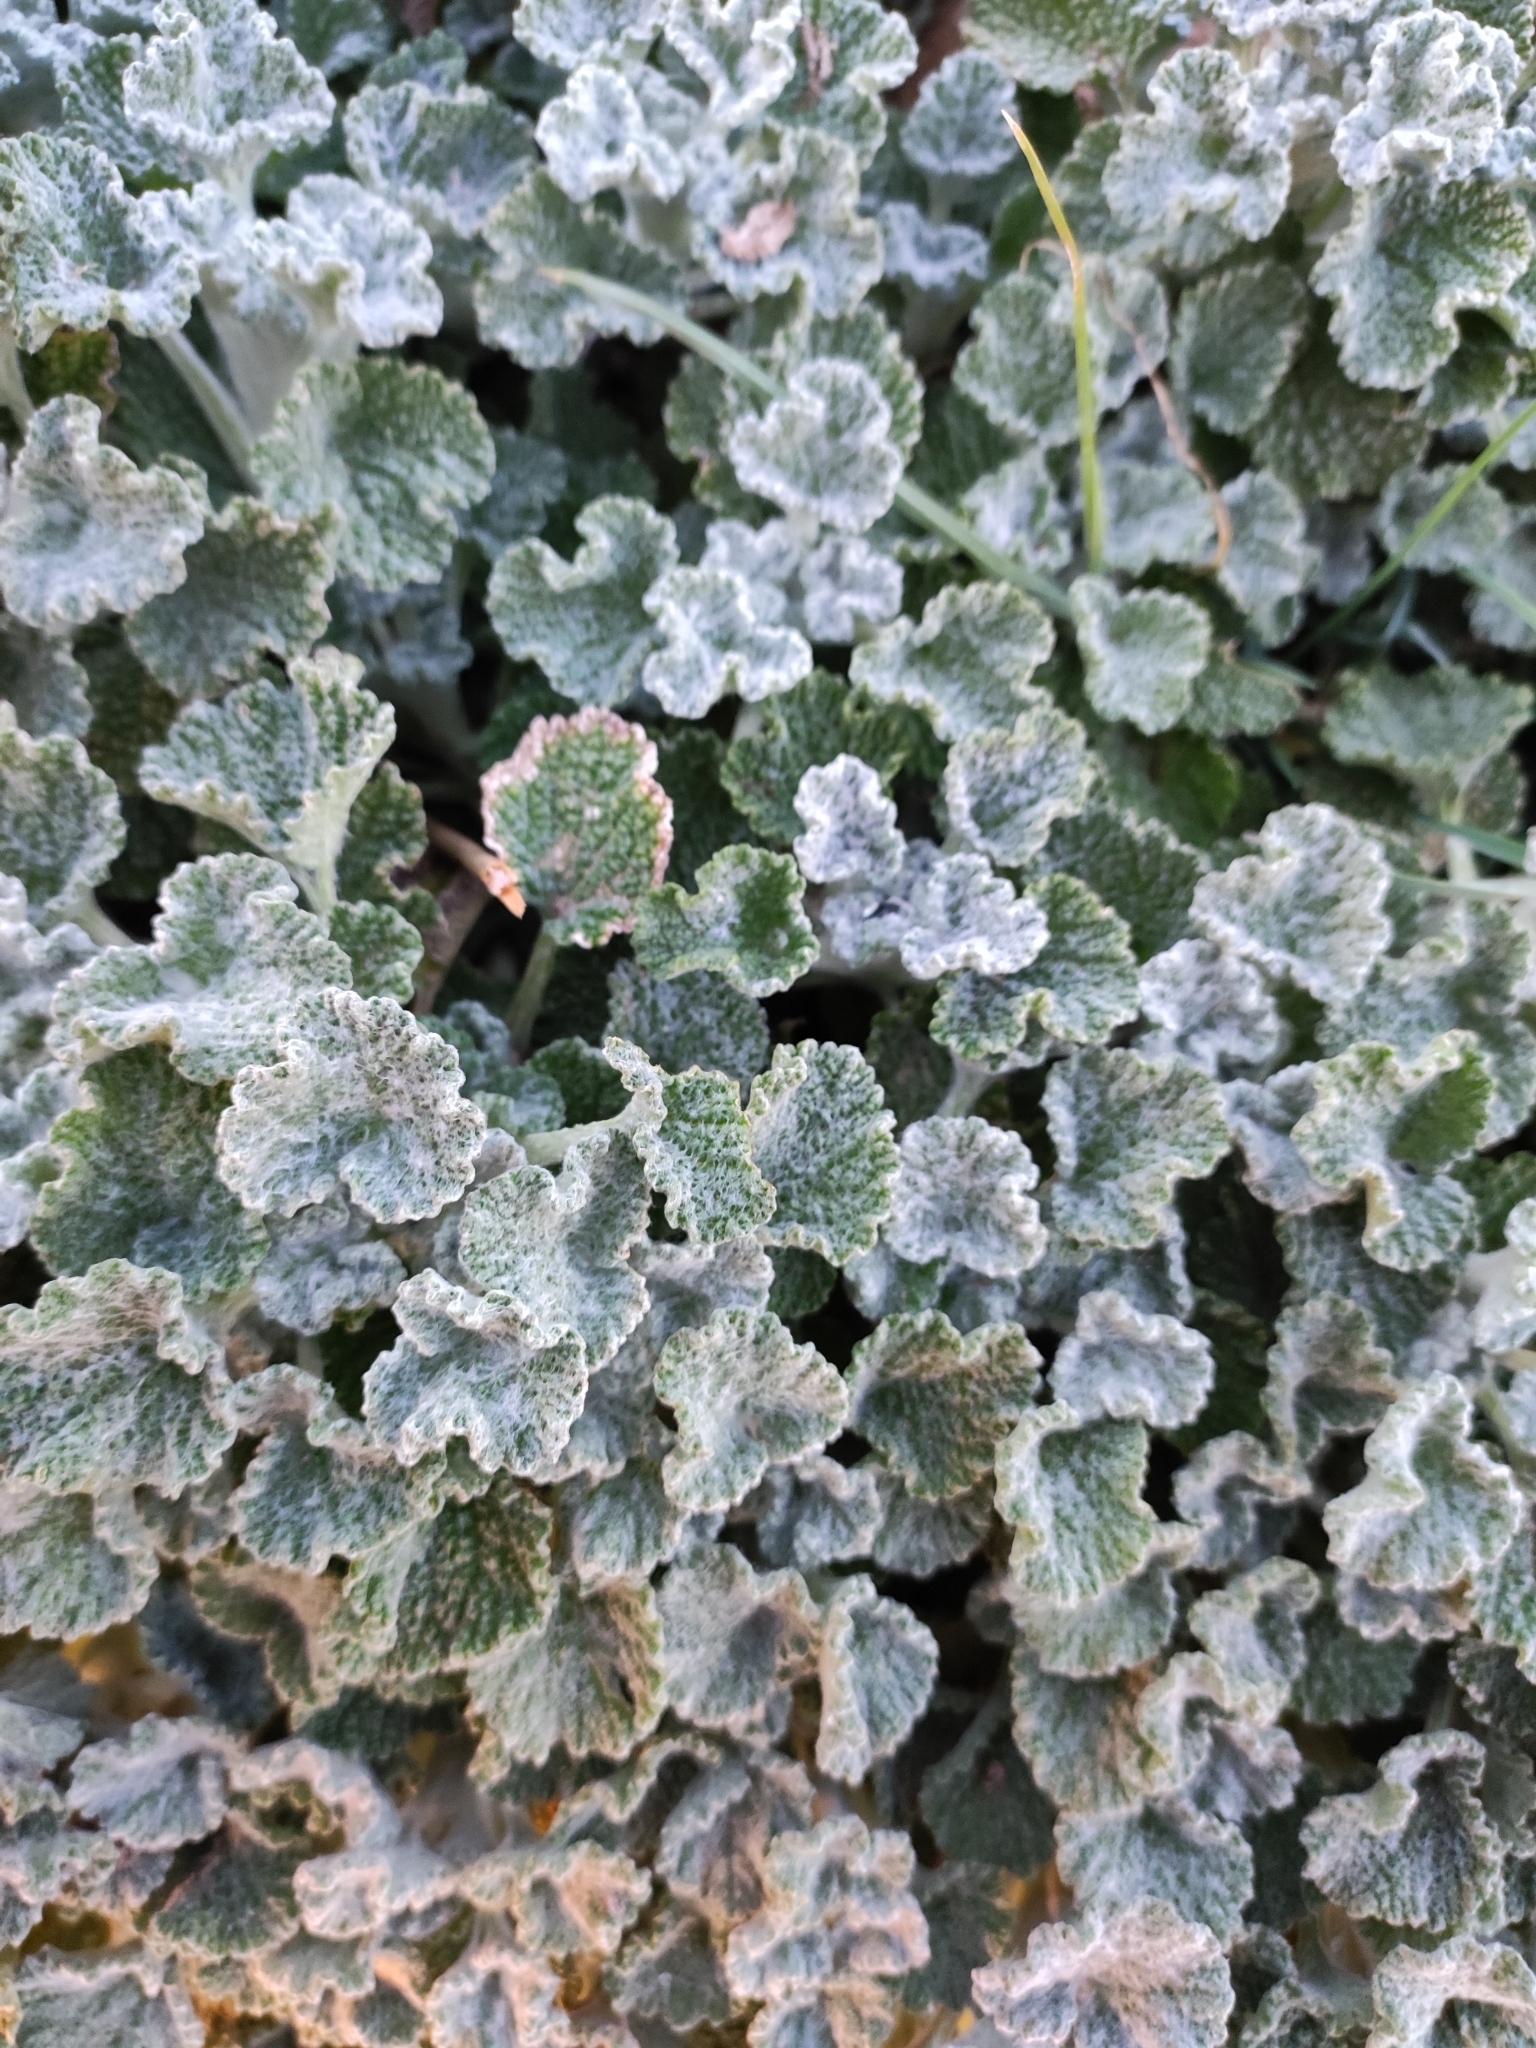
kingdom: Plantae
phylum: Tracheophyta
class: Magnoliopsida
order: Lamiales
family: Lamiaceae
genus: Marrubium
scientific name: Marrubium vulgare
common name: Horehound
